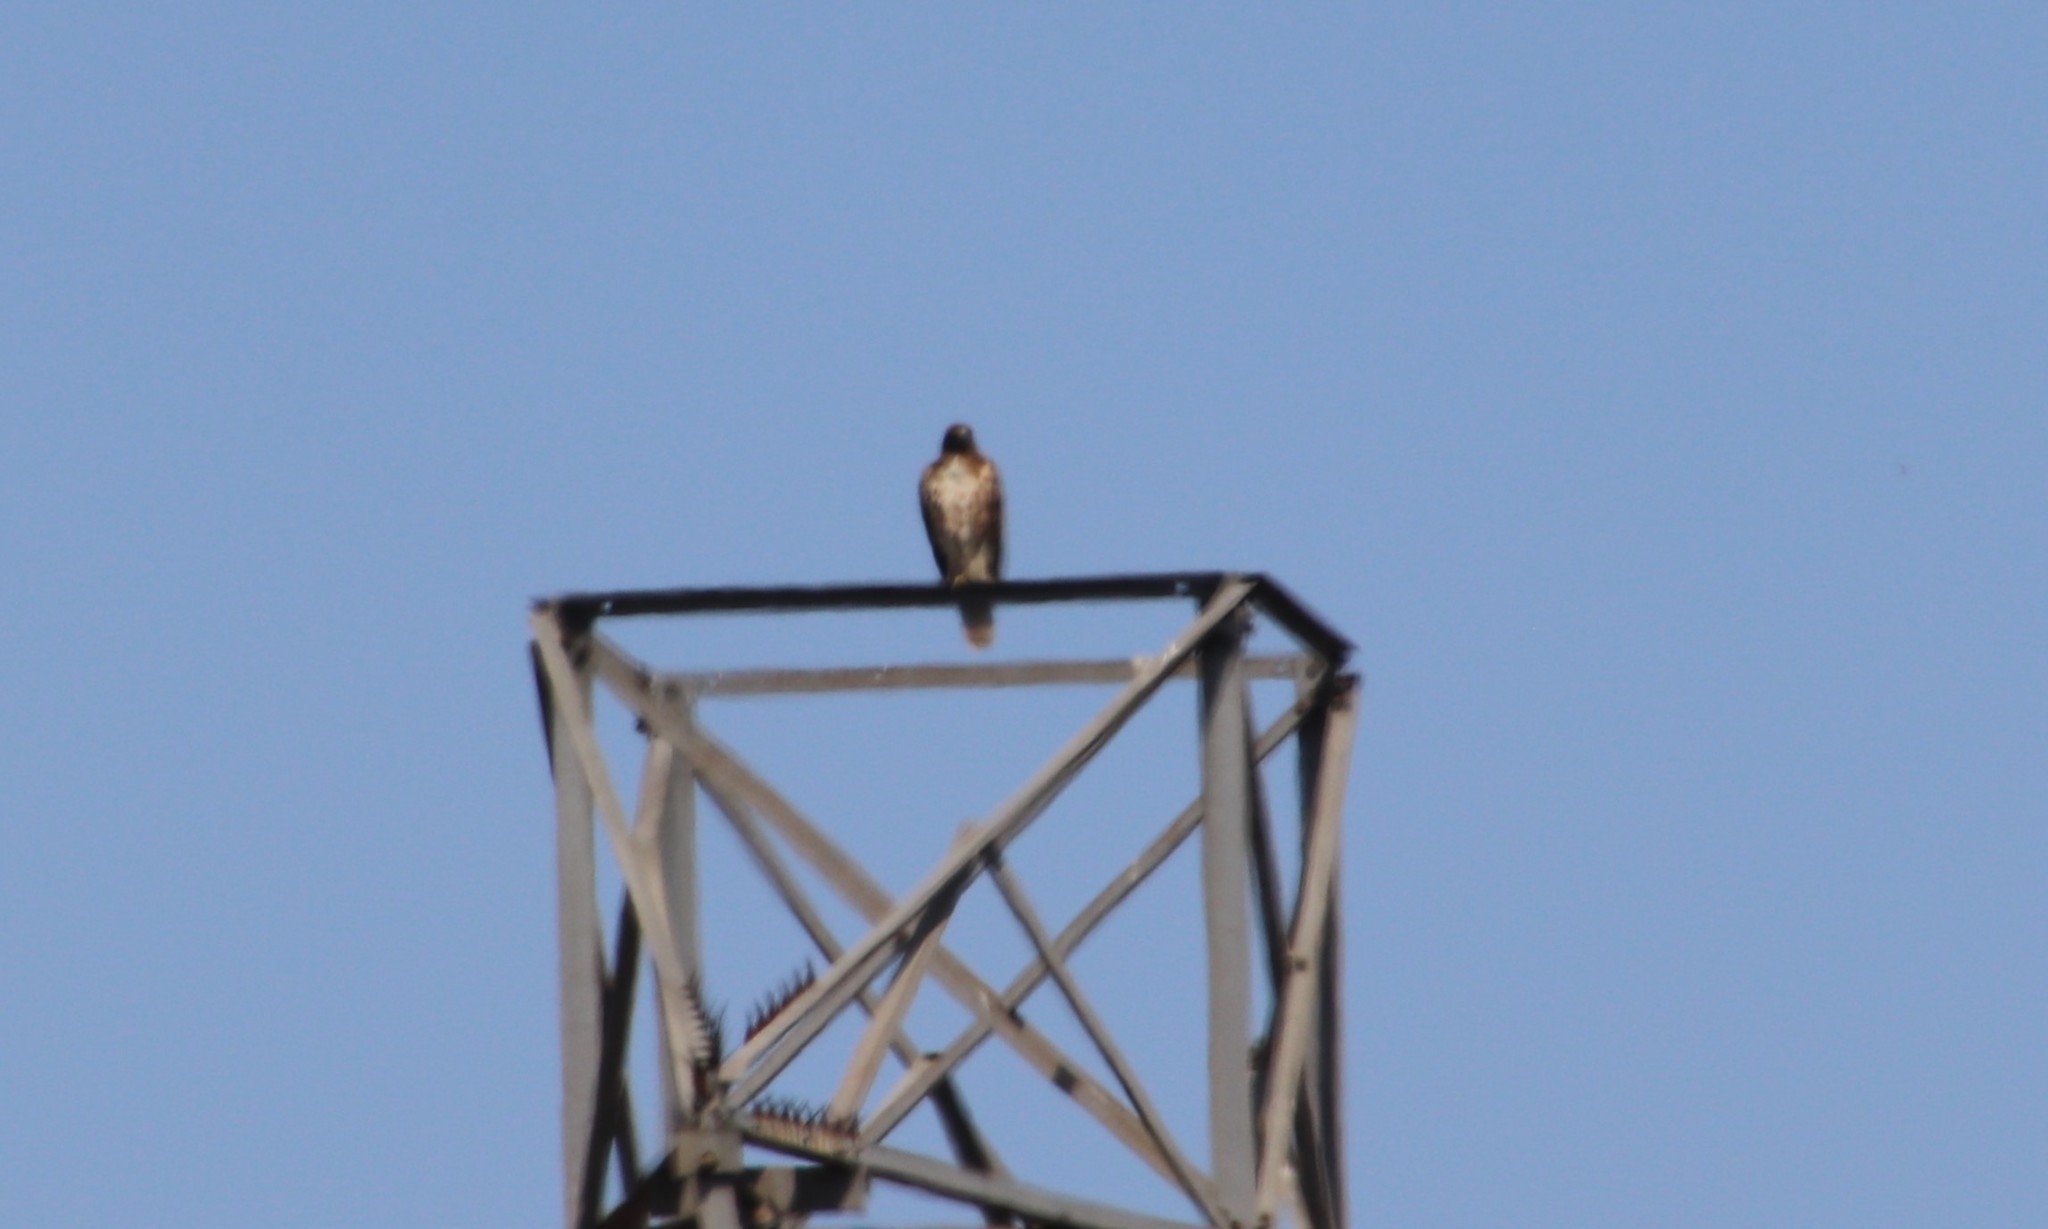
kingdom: Animalia
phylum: Chordata
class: Aves
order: Accipitriformes
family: Accipitridae
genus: Buteo
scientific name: Buteo jamaicensis
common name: Red-tailed hawk
